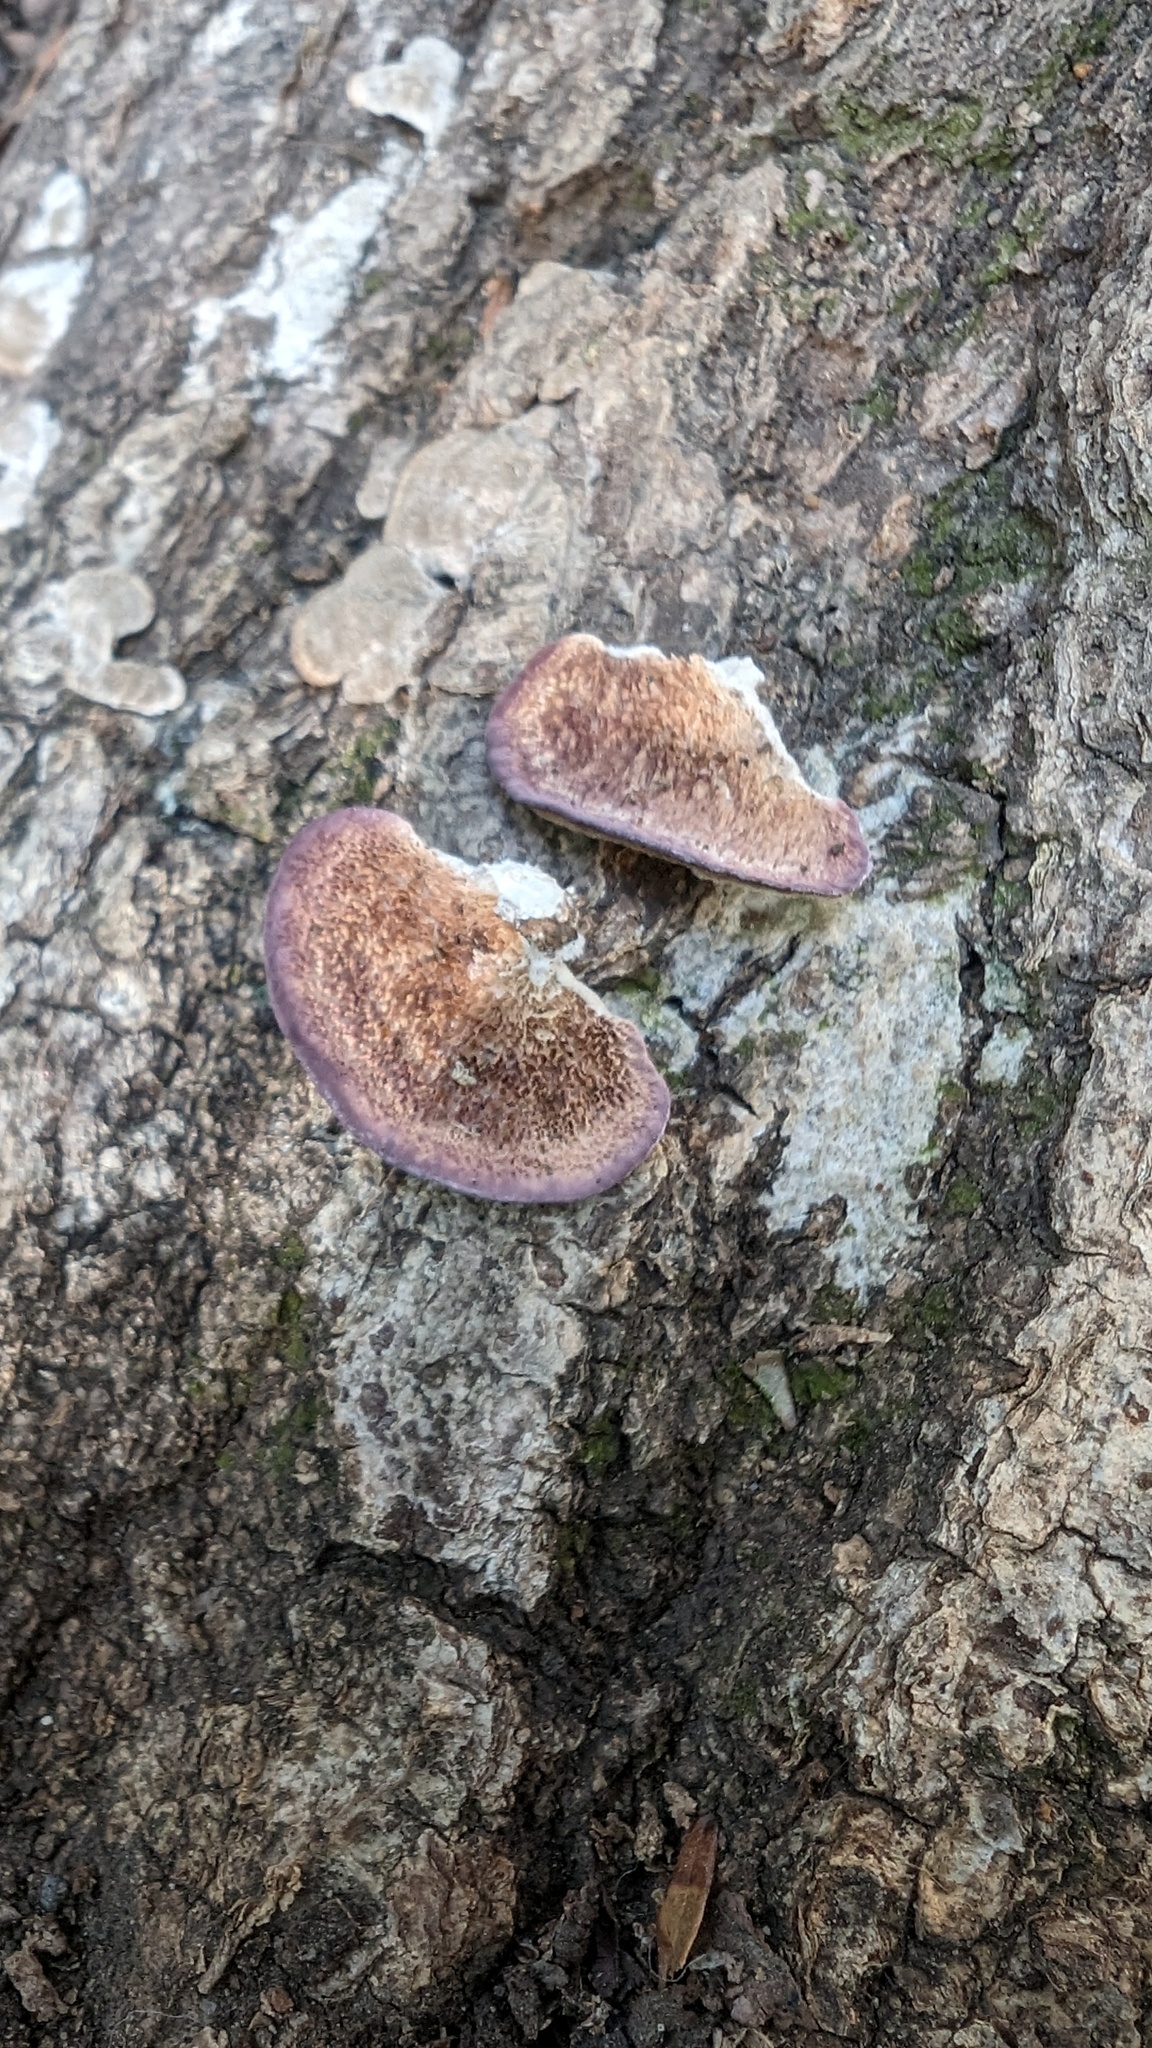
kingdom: Fungi
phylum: Basidiomycota
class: Agaricomycetes
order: Hymenochaetales
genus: Trichaptum
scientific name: Trichaptum biforme
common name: Violet-toothed polypore
